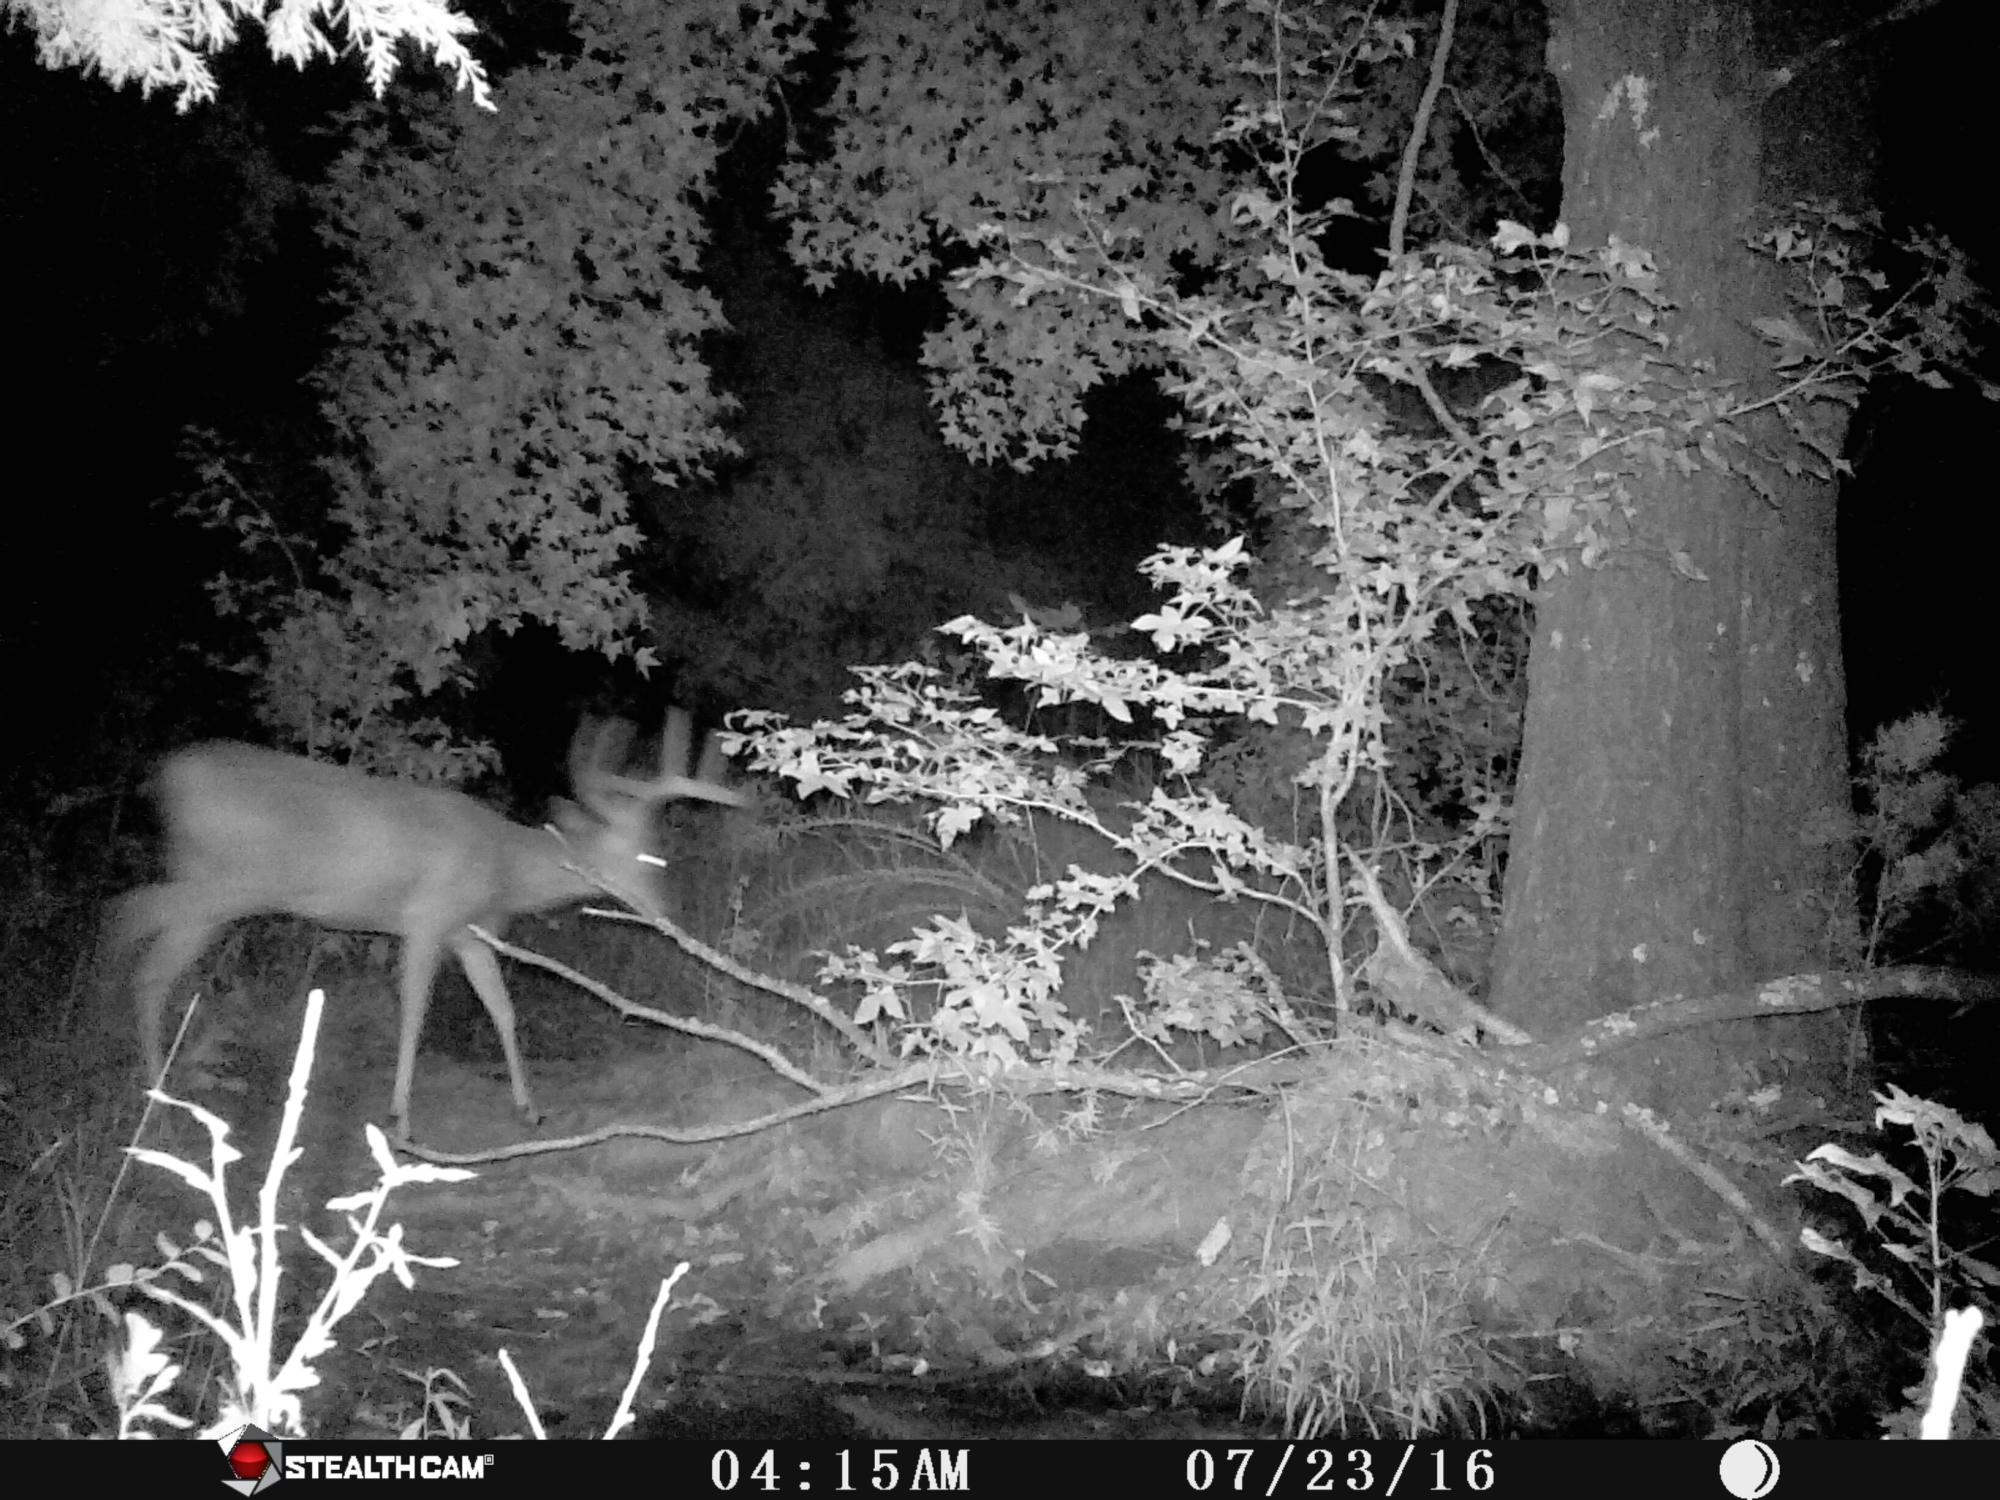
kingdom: Animalia
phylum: Chordata
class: Mammalia
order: Artiodactyla
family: Cervidae
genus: Odocoileus
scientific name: Odocoileus virginianus
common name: White-tailed deer
